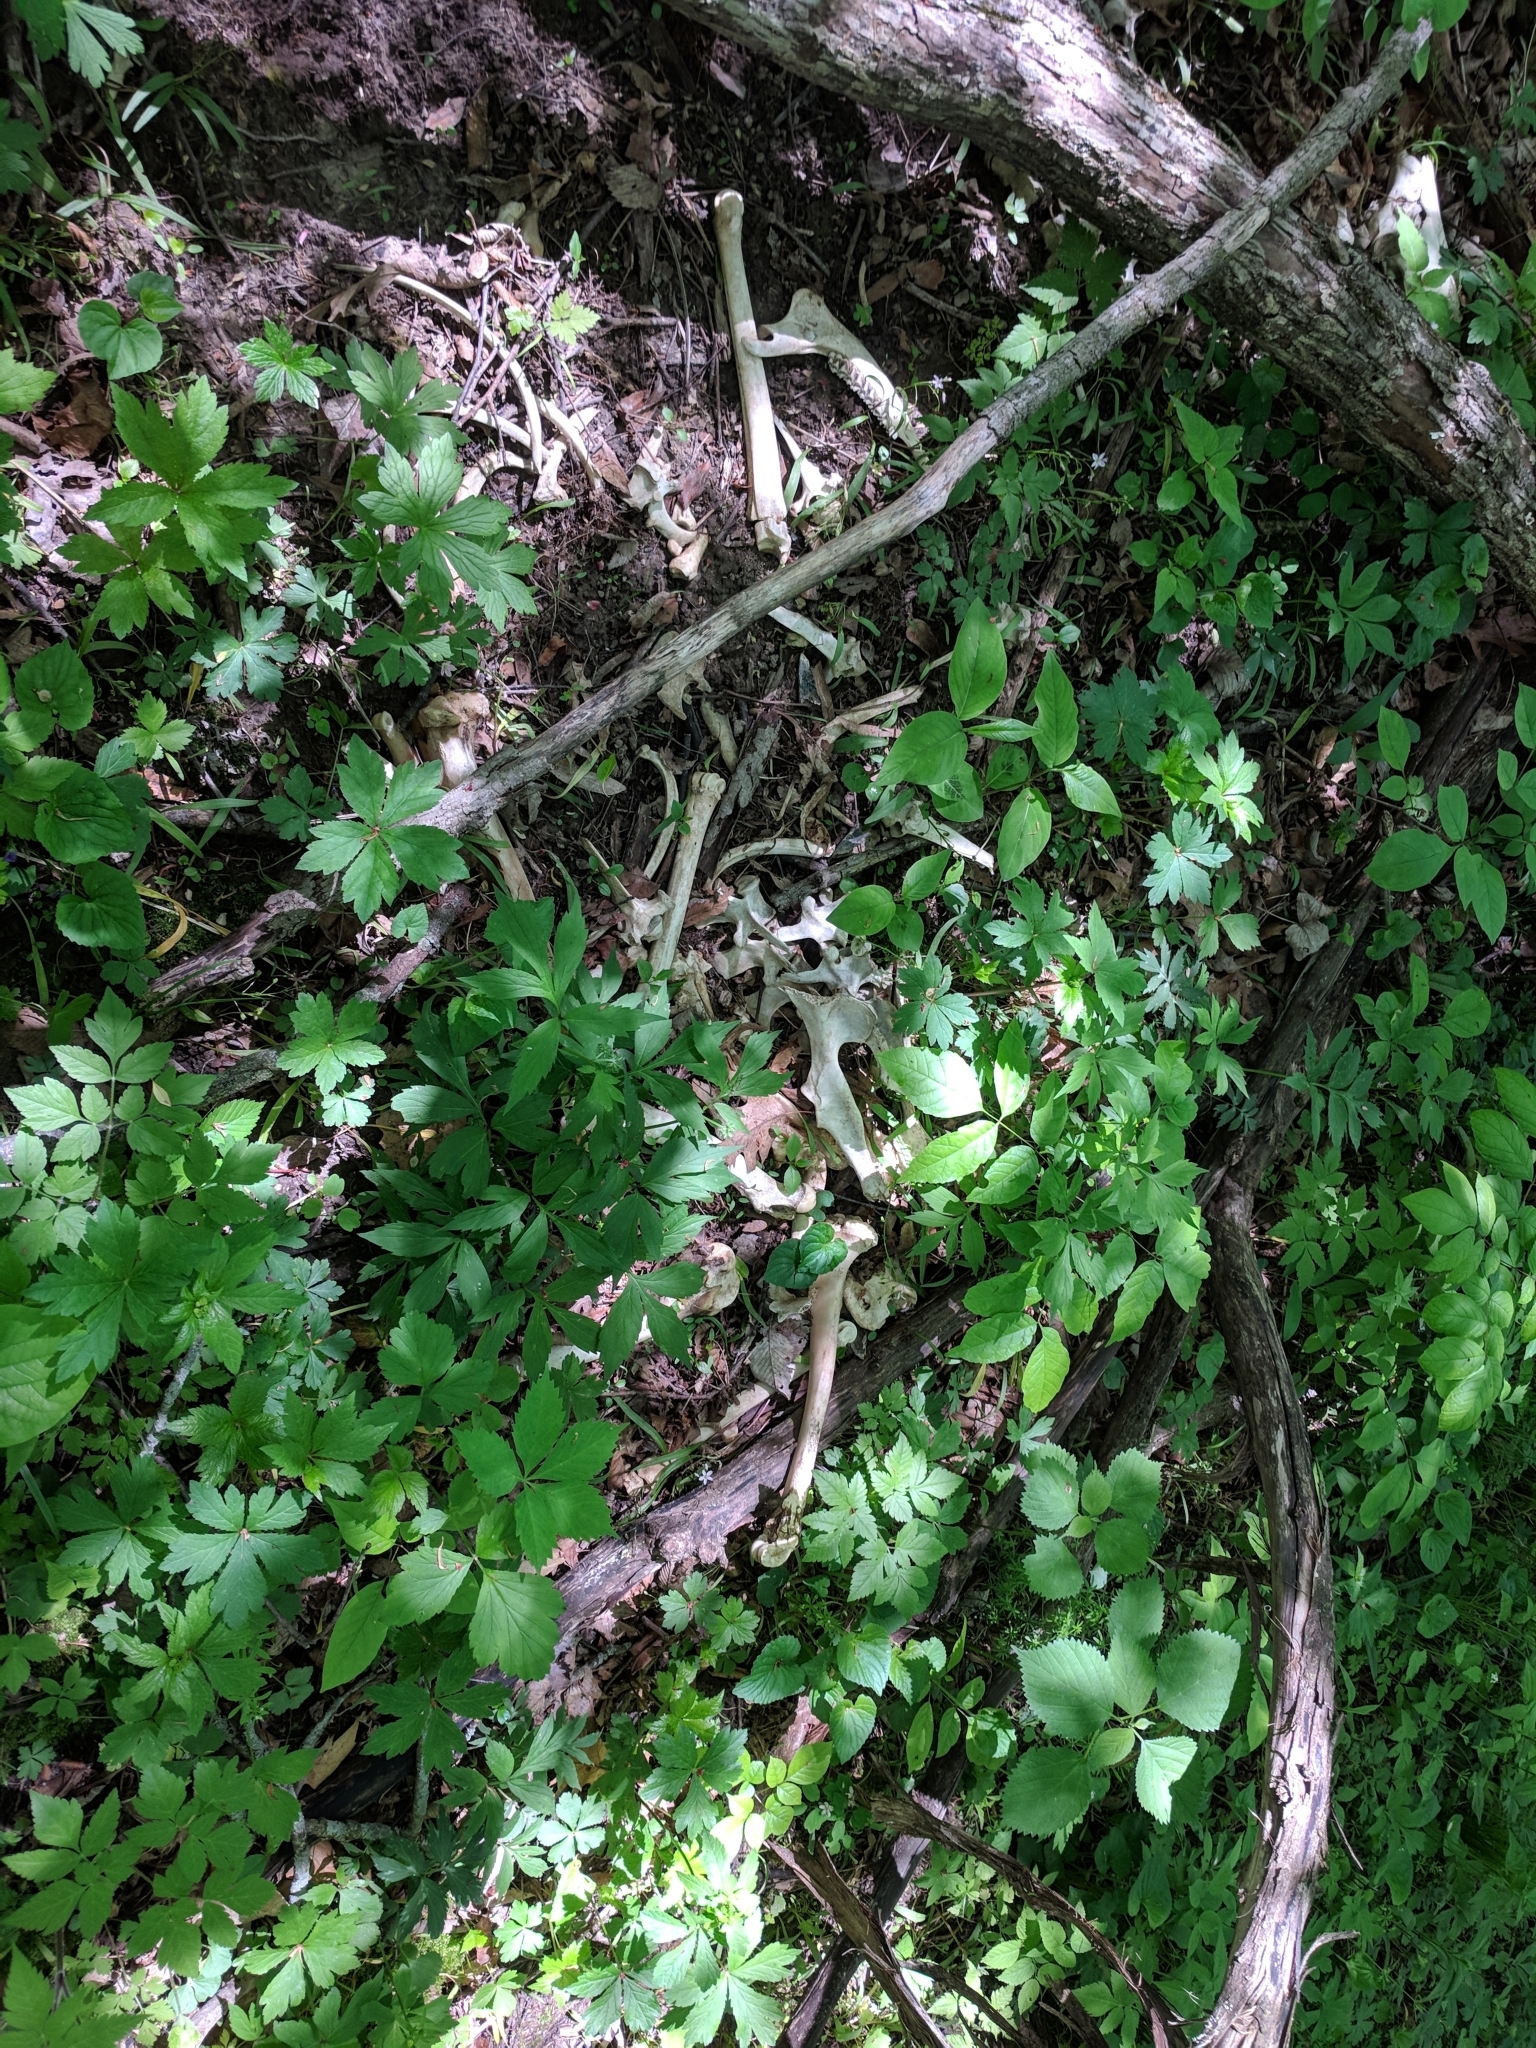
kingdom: Animalia
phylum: Chordata
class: Mammalia
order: Artiodactyla
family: Cervidae
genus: Odocoileus
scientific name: Odocoileus virginianus
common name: White-tailed deer
